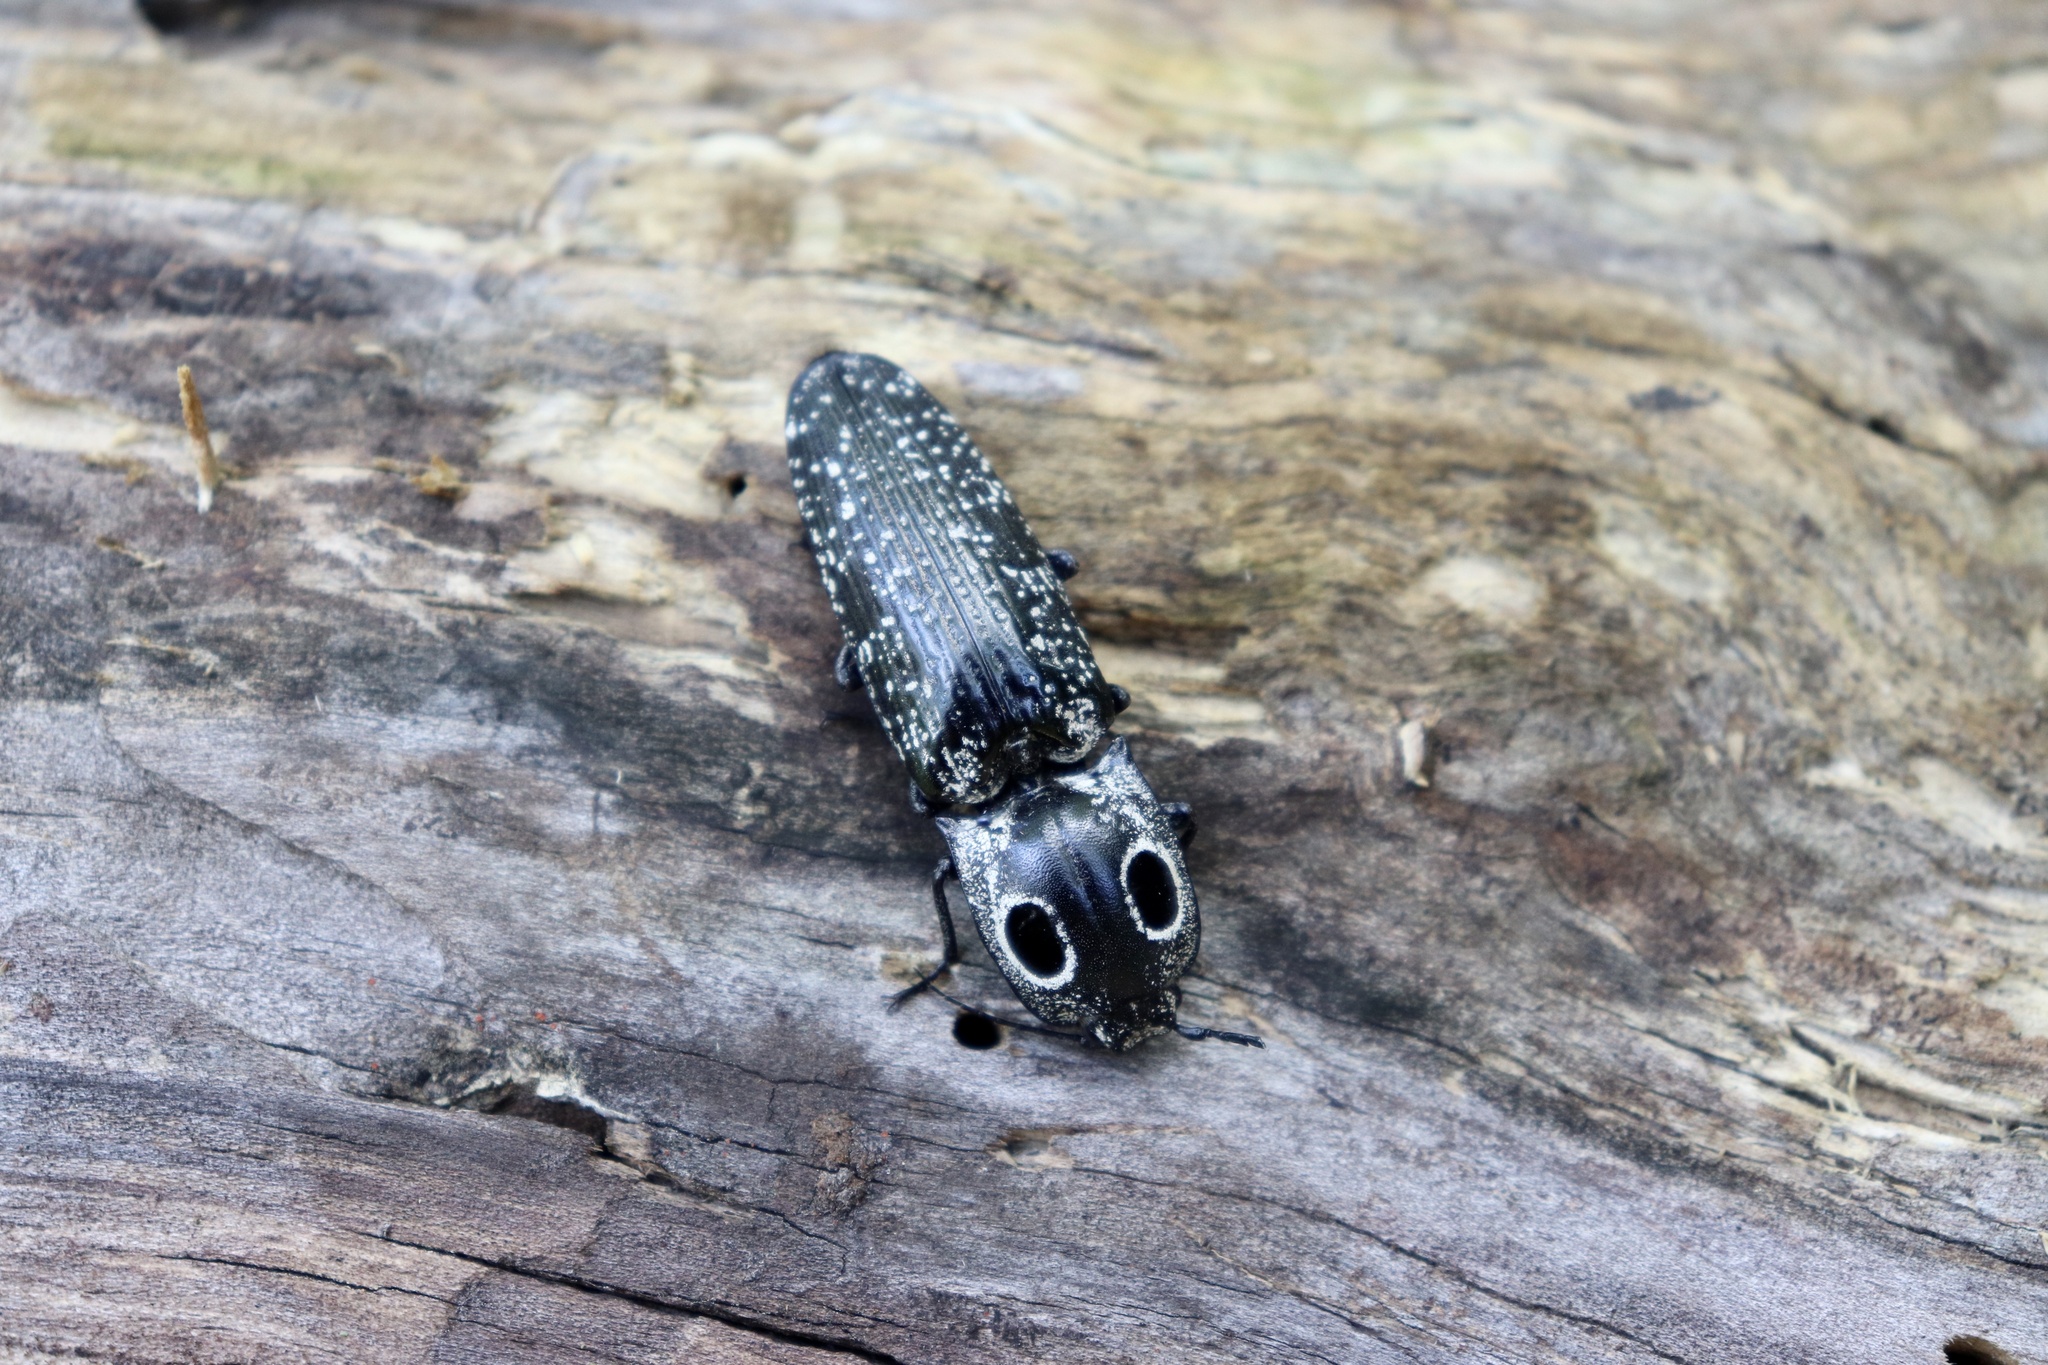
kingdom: Animalia
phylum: Arthropoda
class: Insecta
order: Coleoptera
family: Elateridae
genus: Alaus
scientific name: Alaus oculatus
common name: Eastern eyed click beetle
